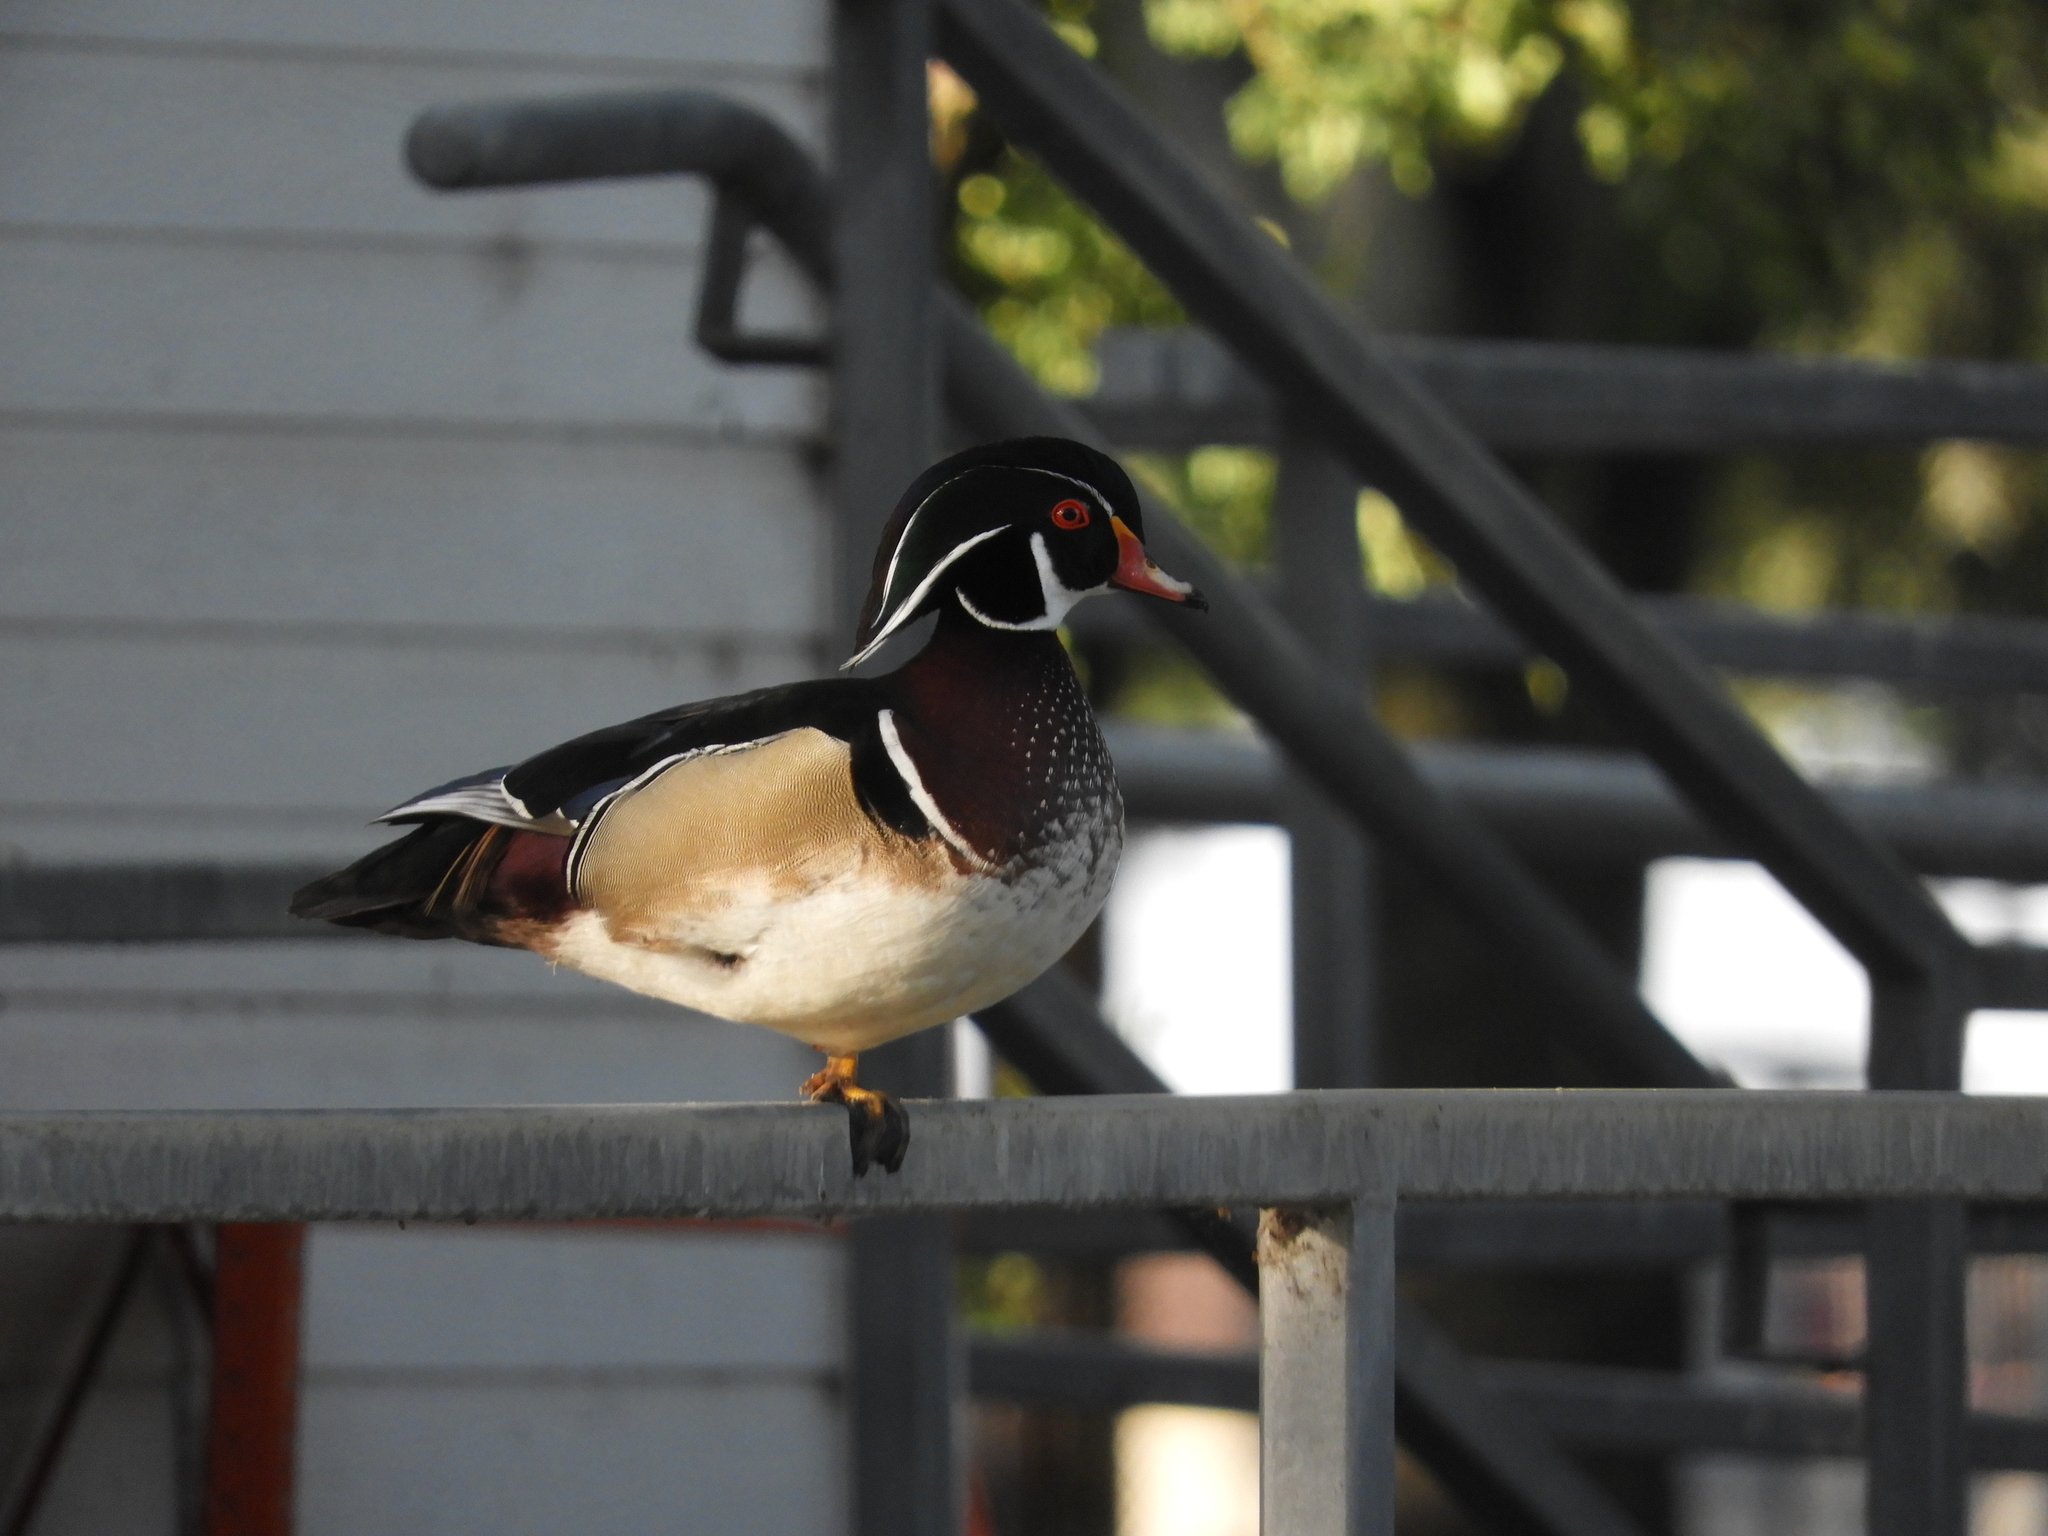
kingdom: Animalia
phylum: Chordata
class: Aves
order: Anseriformes
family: Anatidae
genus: Aix
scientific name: Aix sponsa
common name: Wood duck
